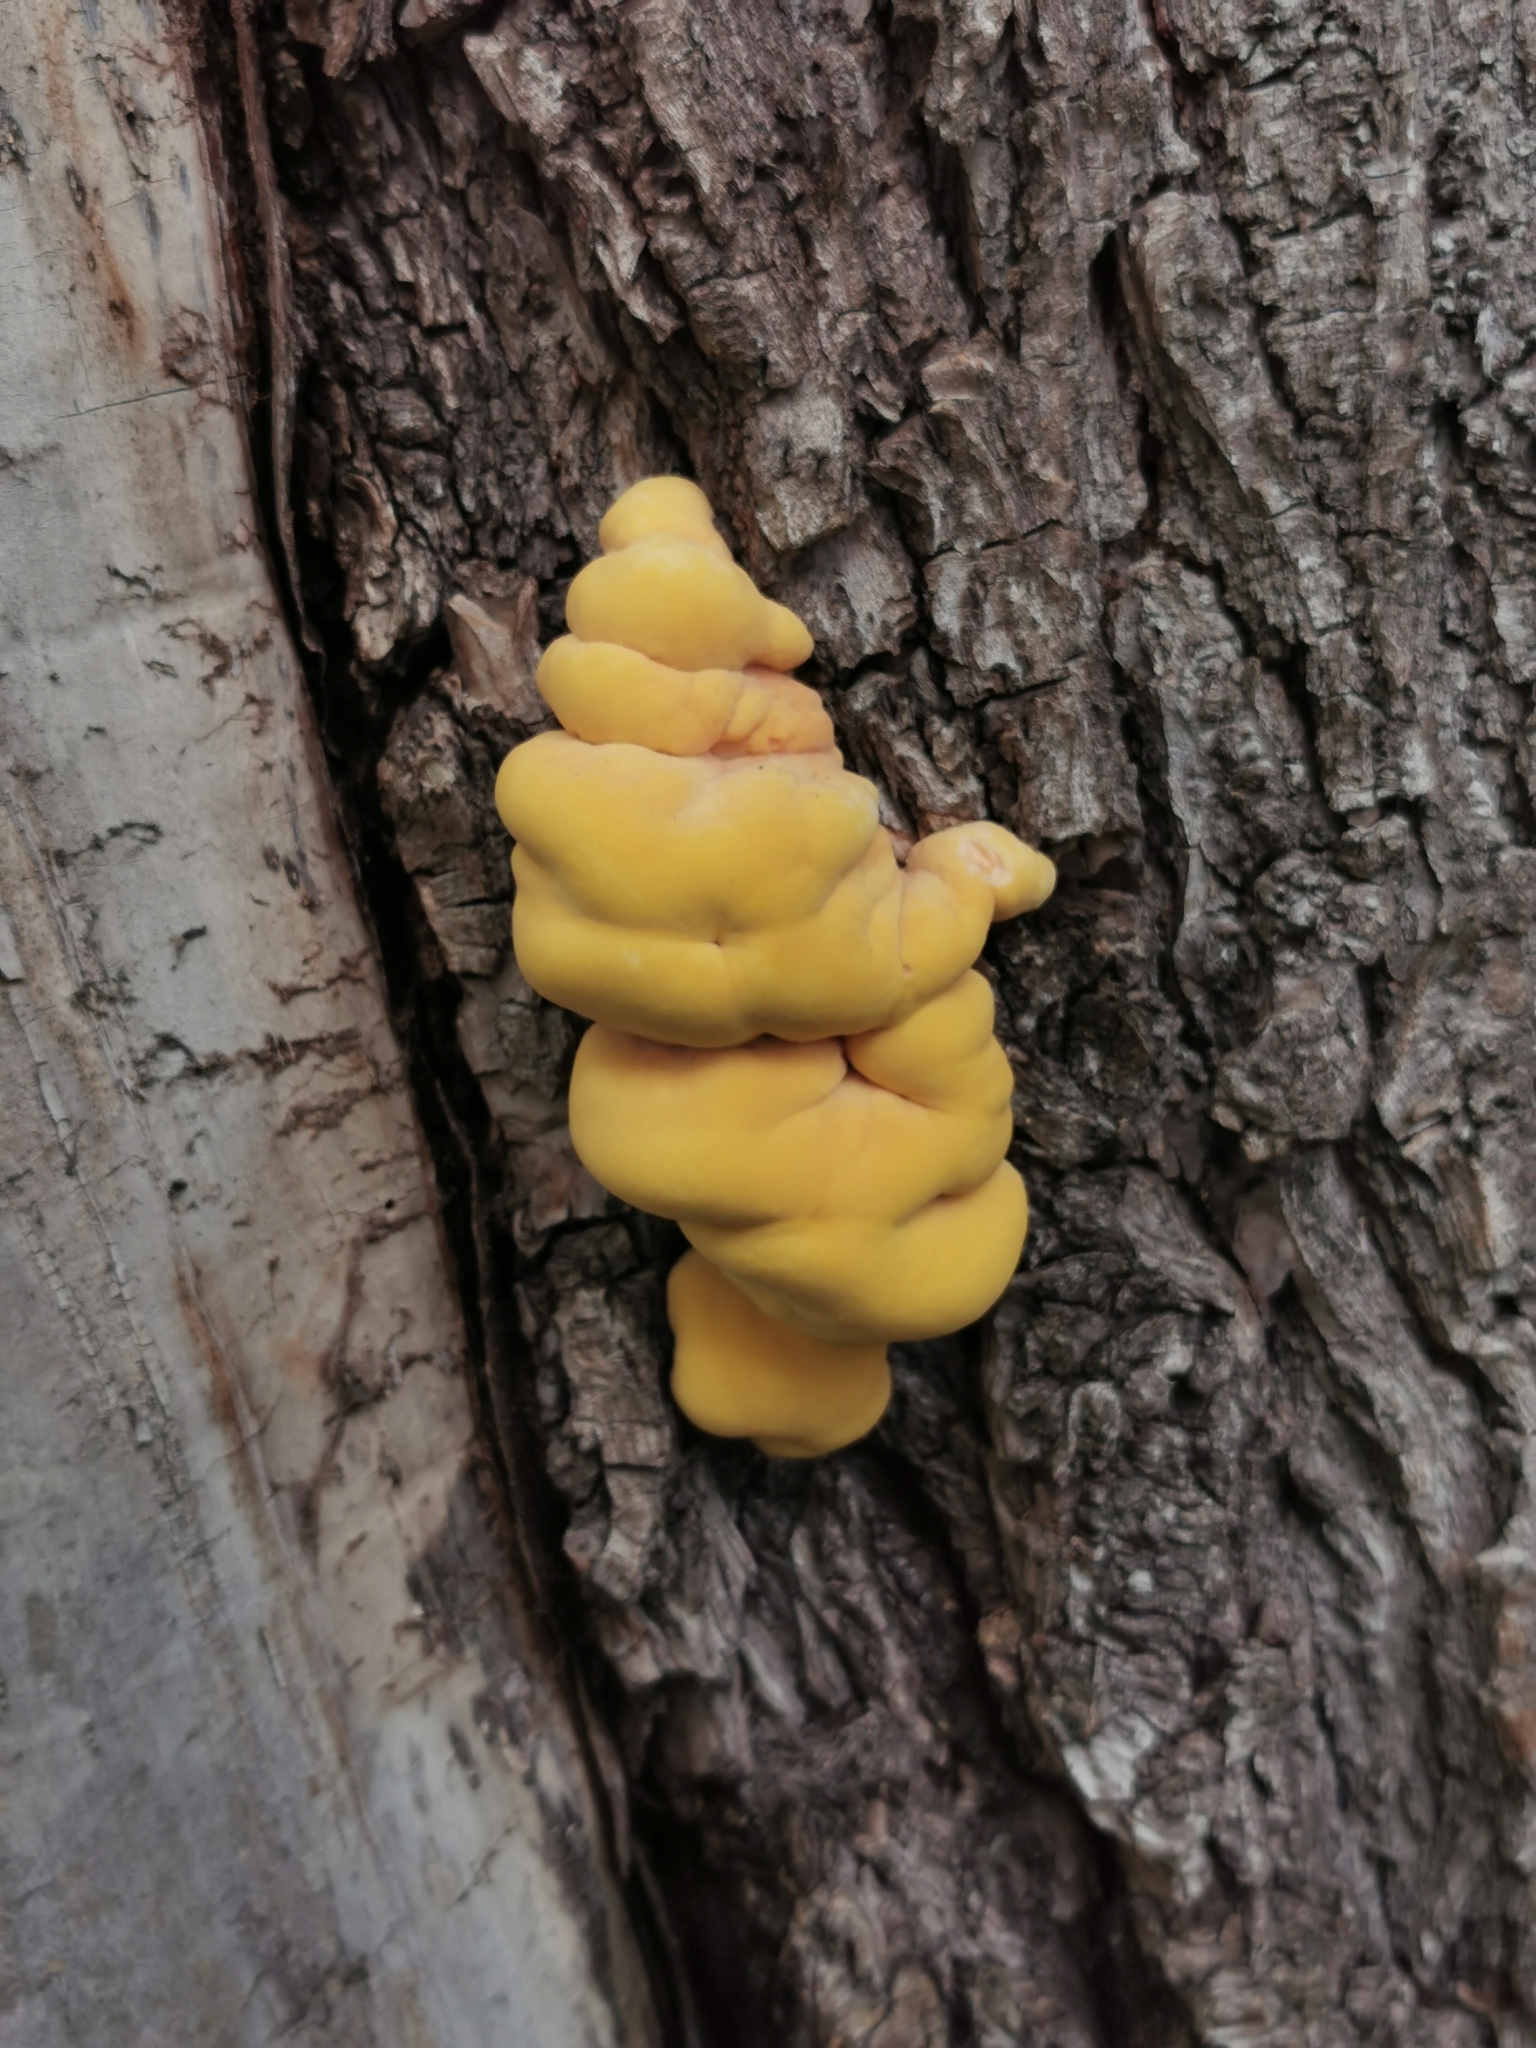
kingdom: Fungi
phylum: Basidiomycota
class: Agaricomycetes
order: Polyporales
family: Laetiporaceae
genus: Laetiporus
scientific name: Laetiporus sulphureus
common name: Chicken of the woods
